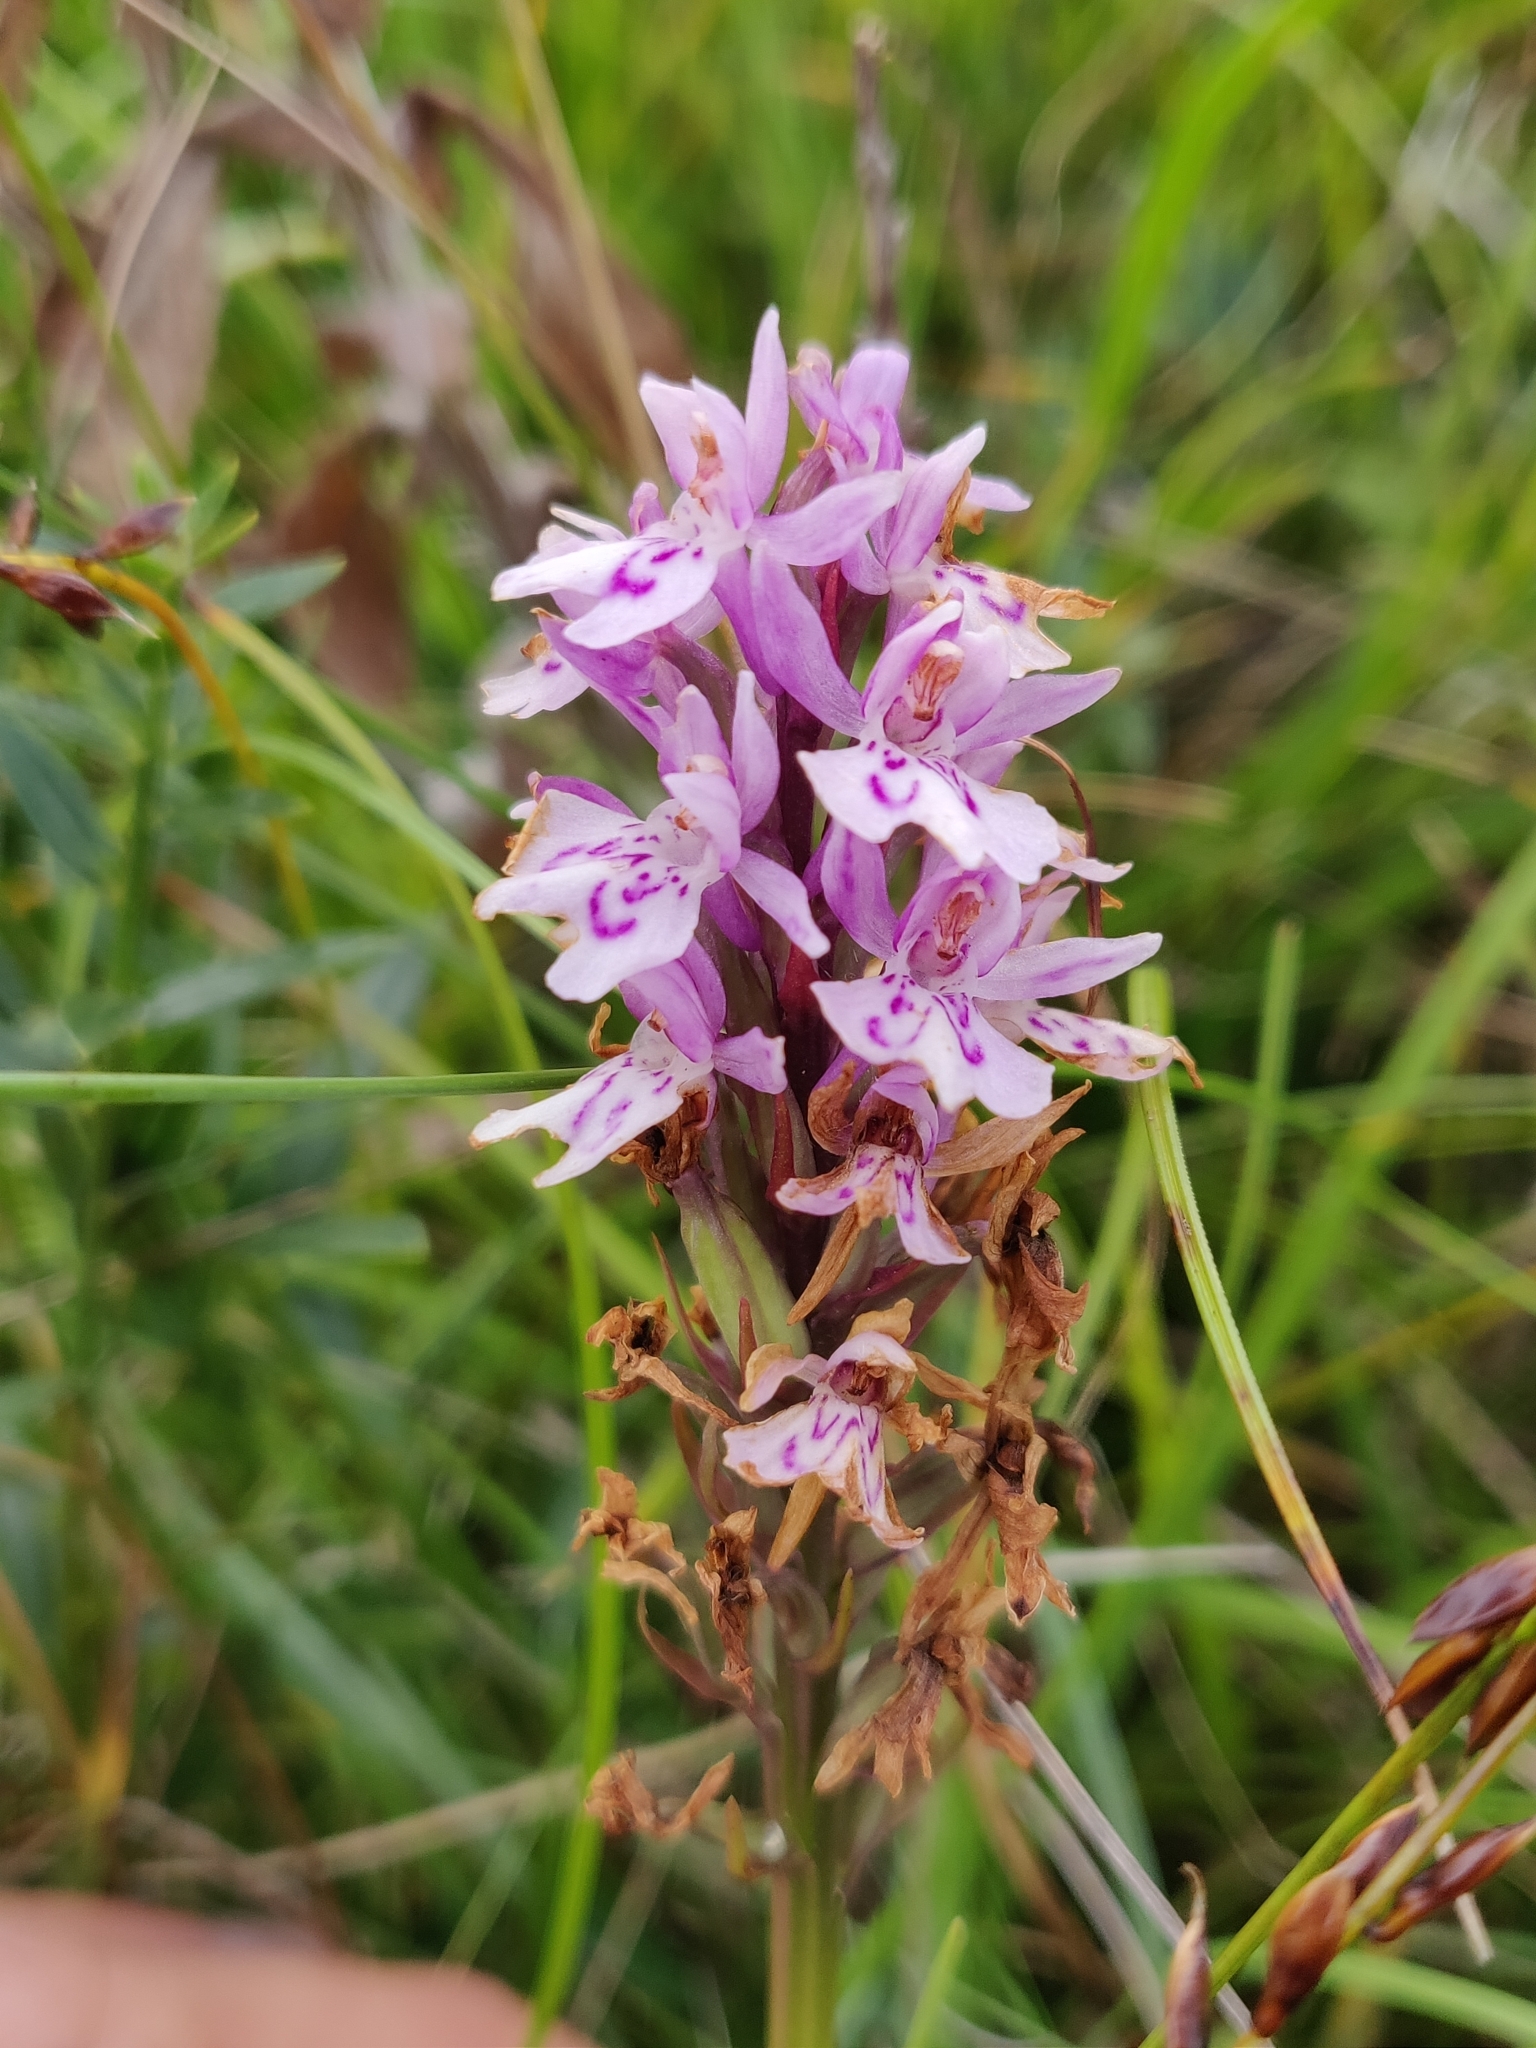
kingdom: Plantae
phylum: Tracheophyta
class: Liliopsida
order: Asparagales
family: Orchidaceae
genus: Dactylorhiza
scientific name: Dactylorhiza maculata
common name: Heath spotted-orchid
